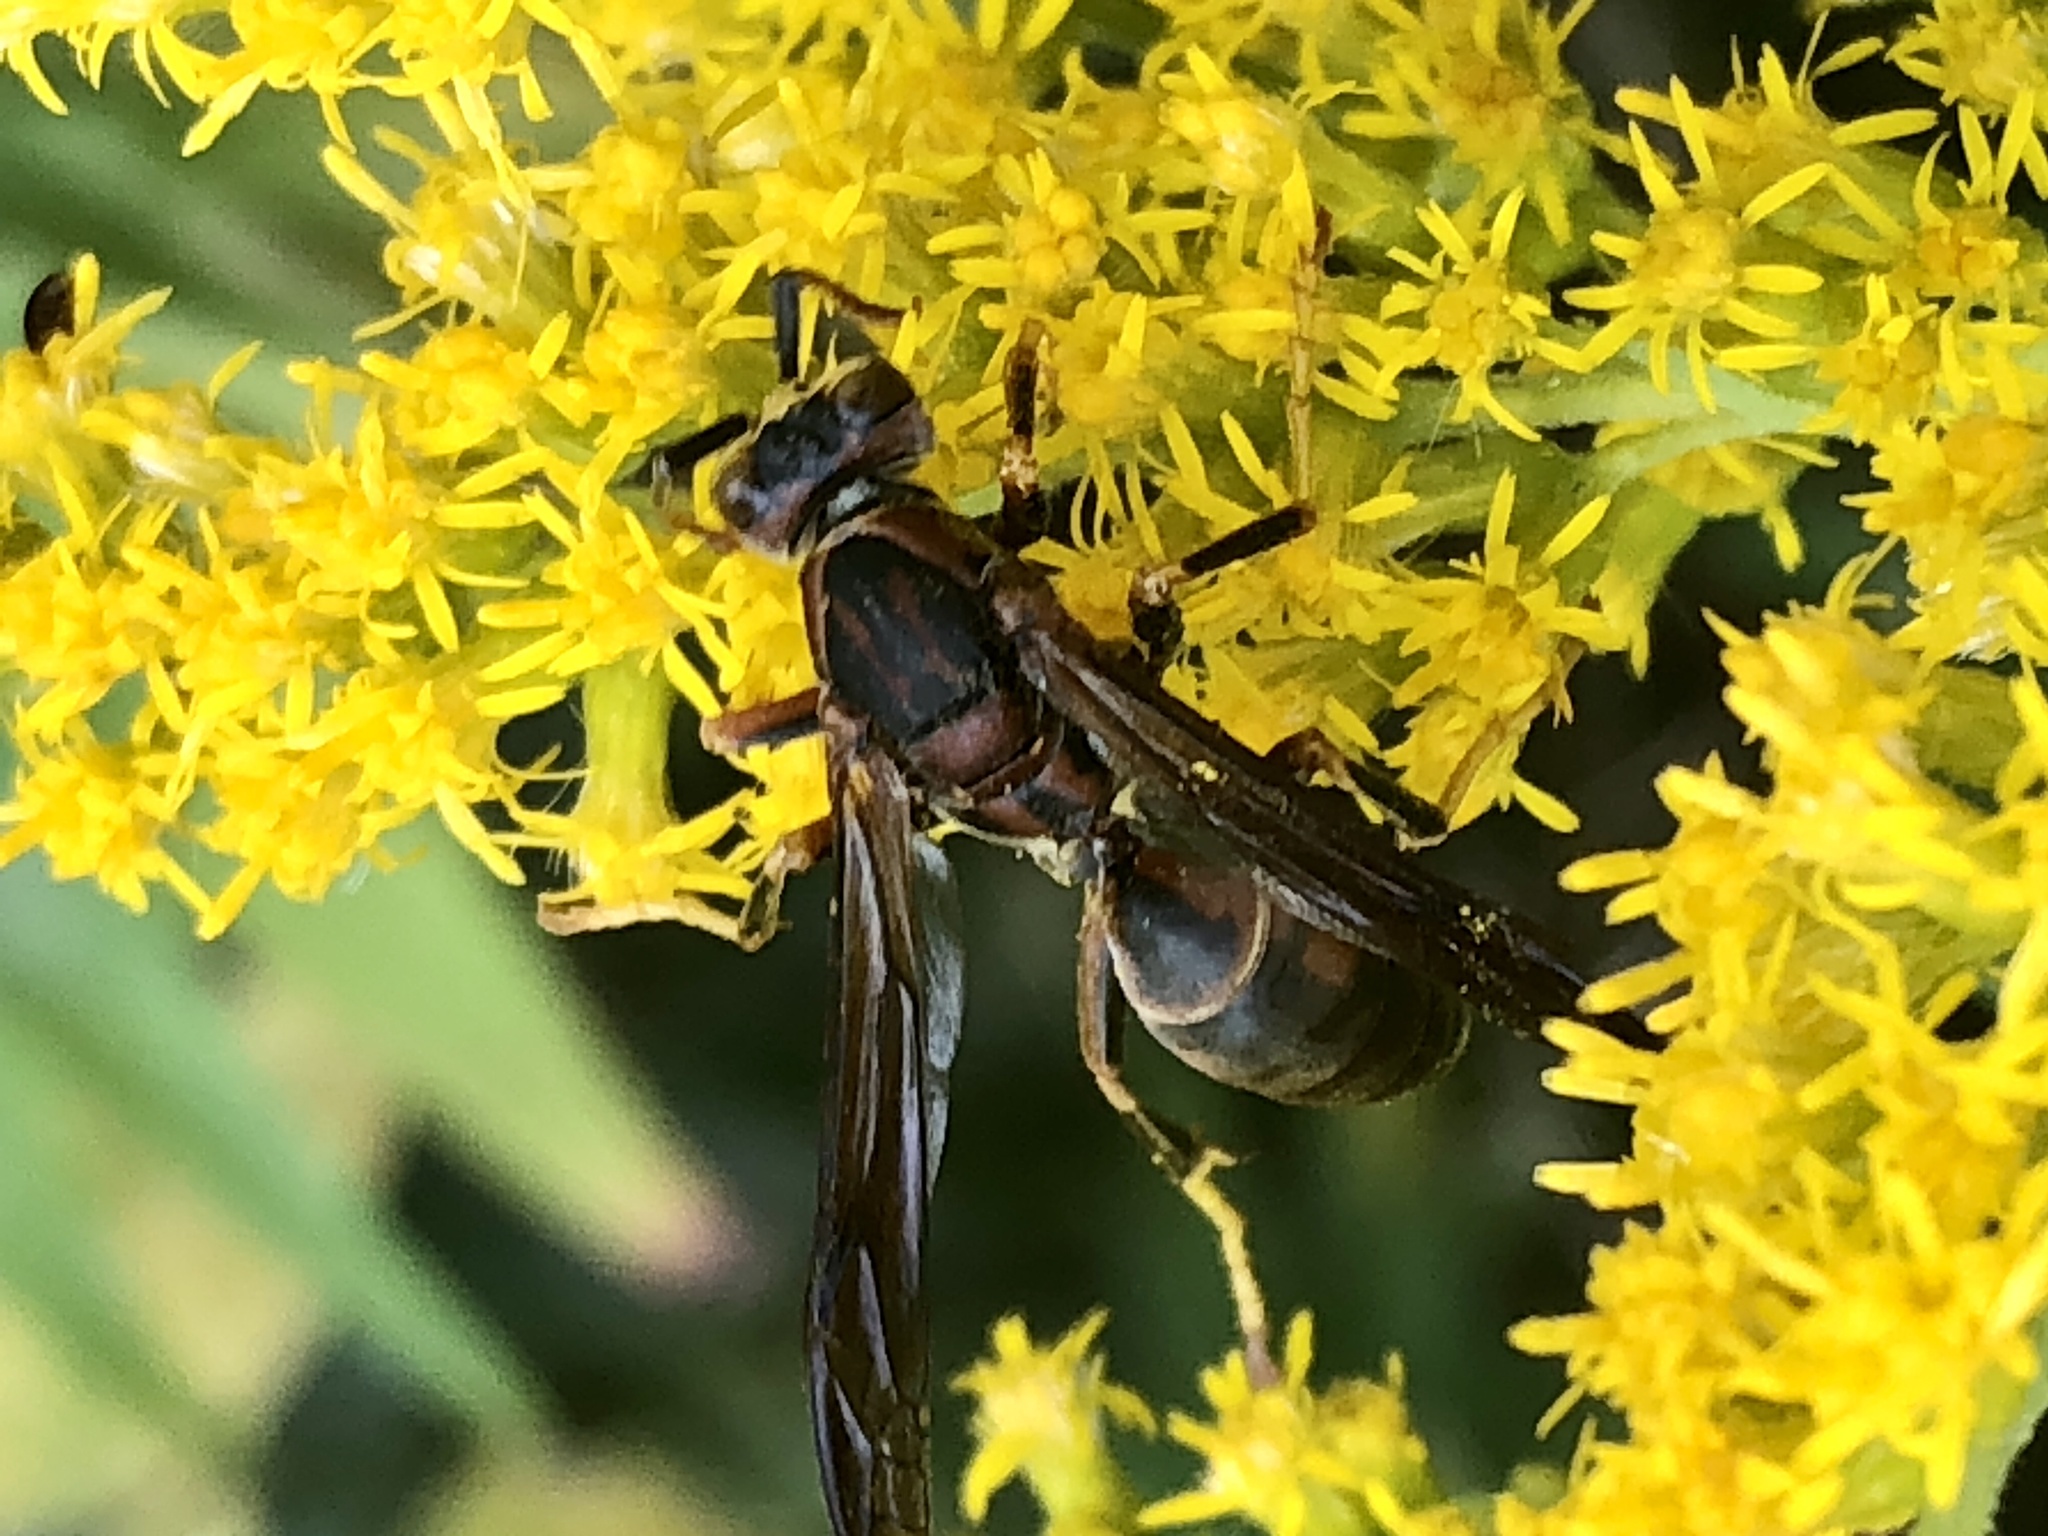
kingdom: Animalia
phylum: Arthropoda
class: Insecta
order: Hymenoptera
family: Eumenidae
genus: Polistes
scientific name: Polistes fuscatus
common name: Dark paper wasp
